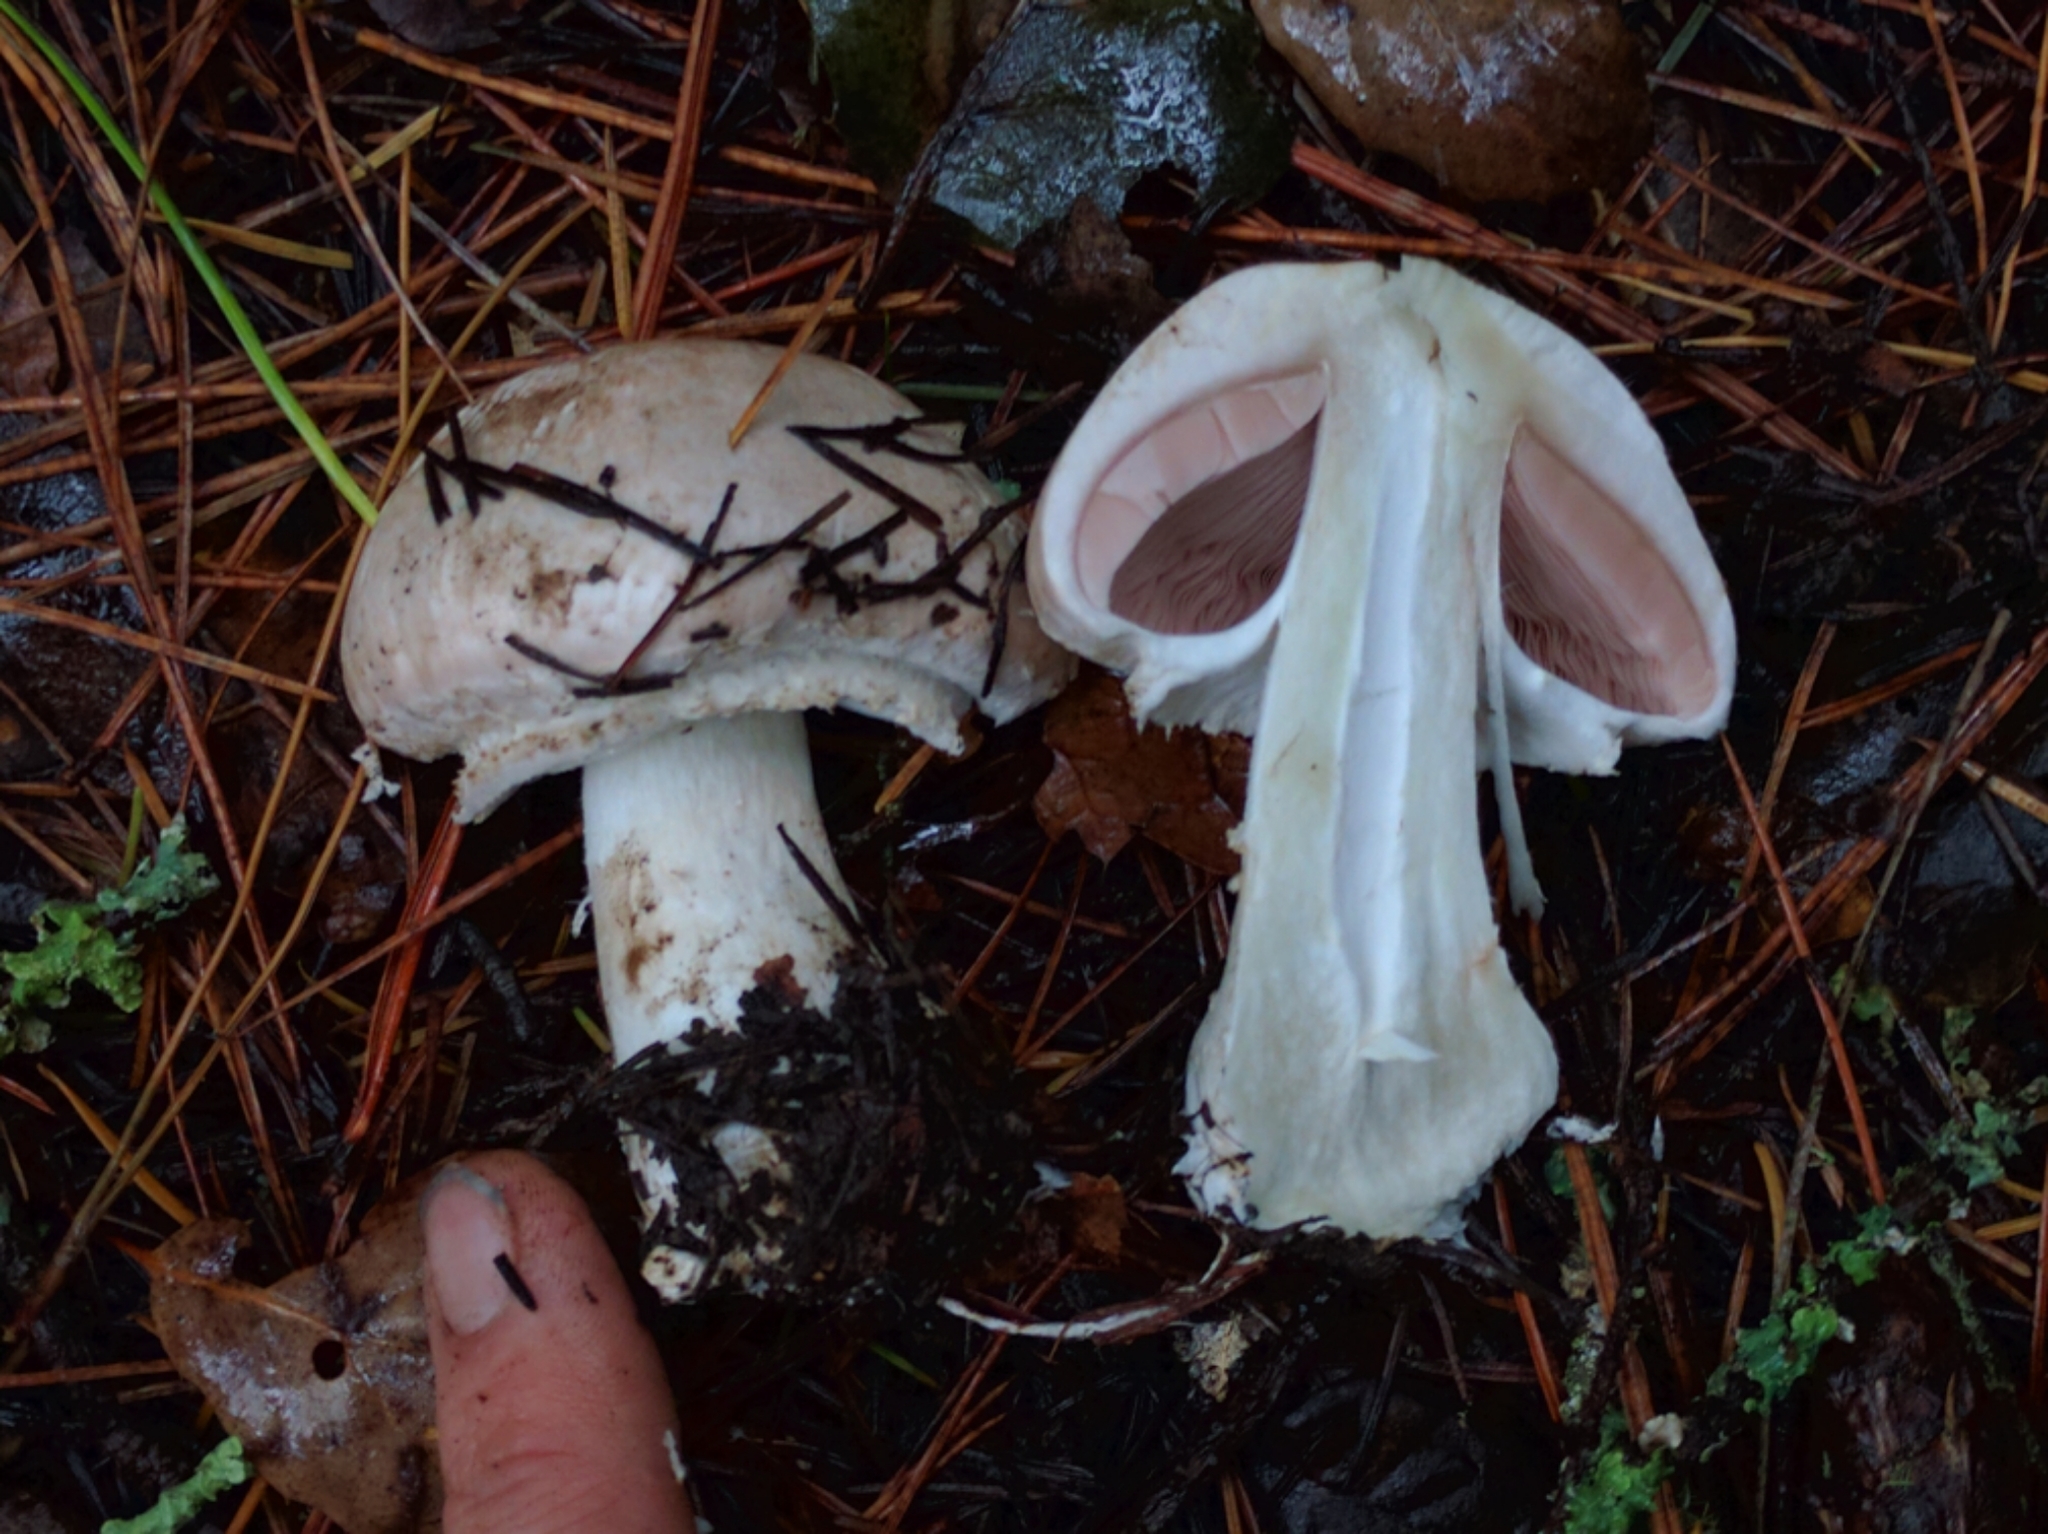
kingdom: Fungi
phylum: Basidiomycota
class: Agaricomycetes
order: Agaricales
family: Agaricaceae
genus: Agaricus
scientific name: Agaricus hondensis
